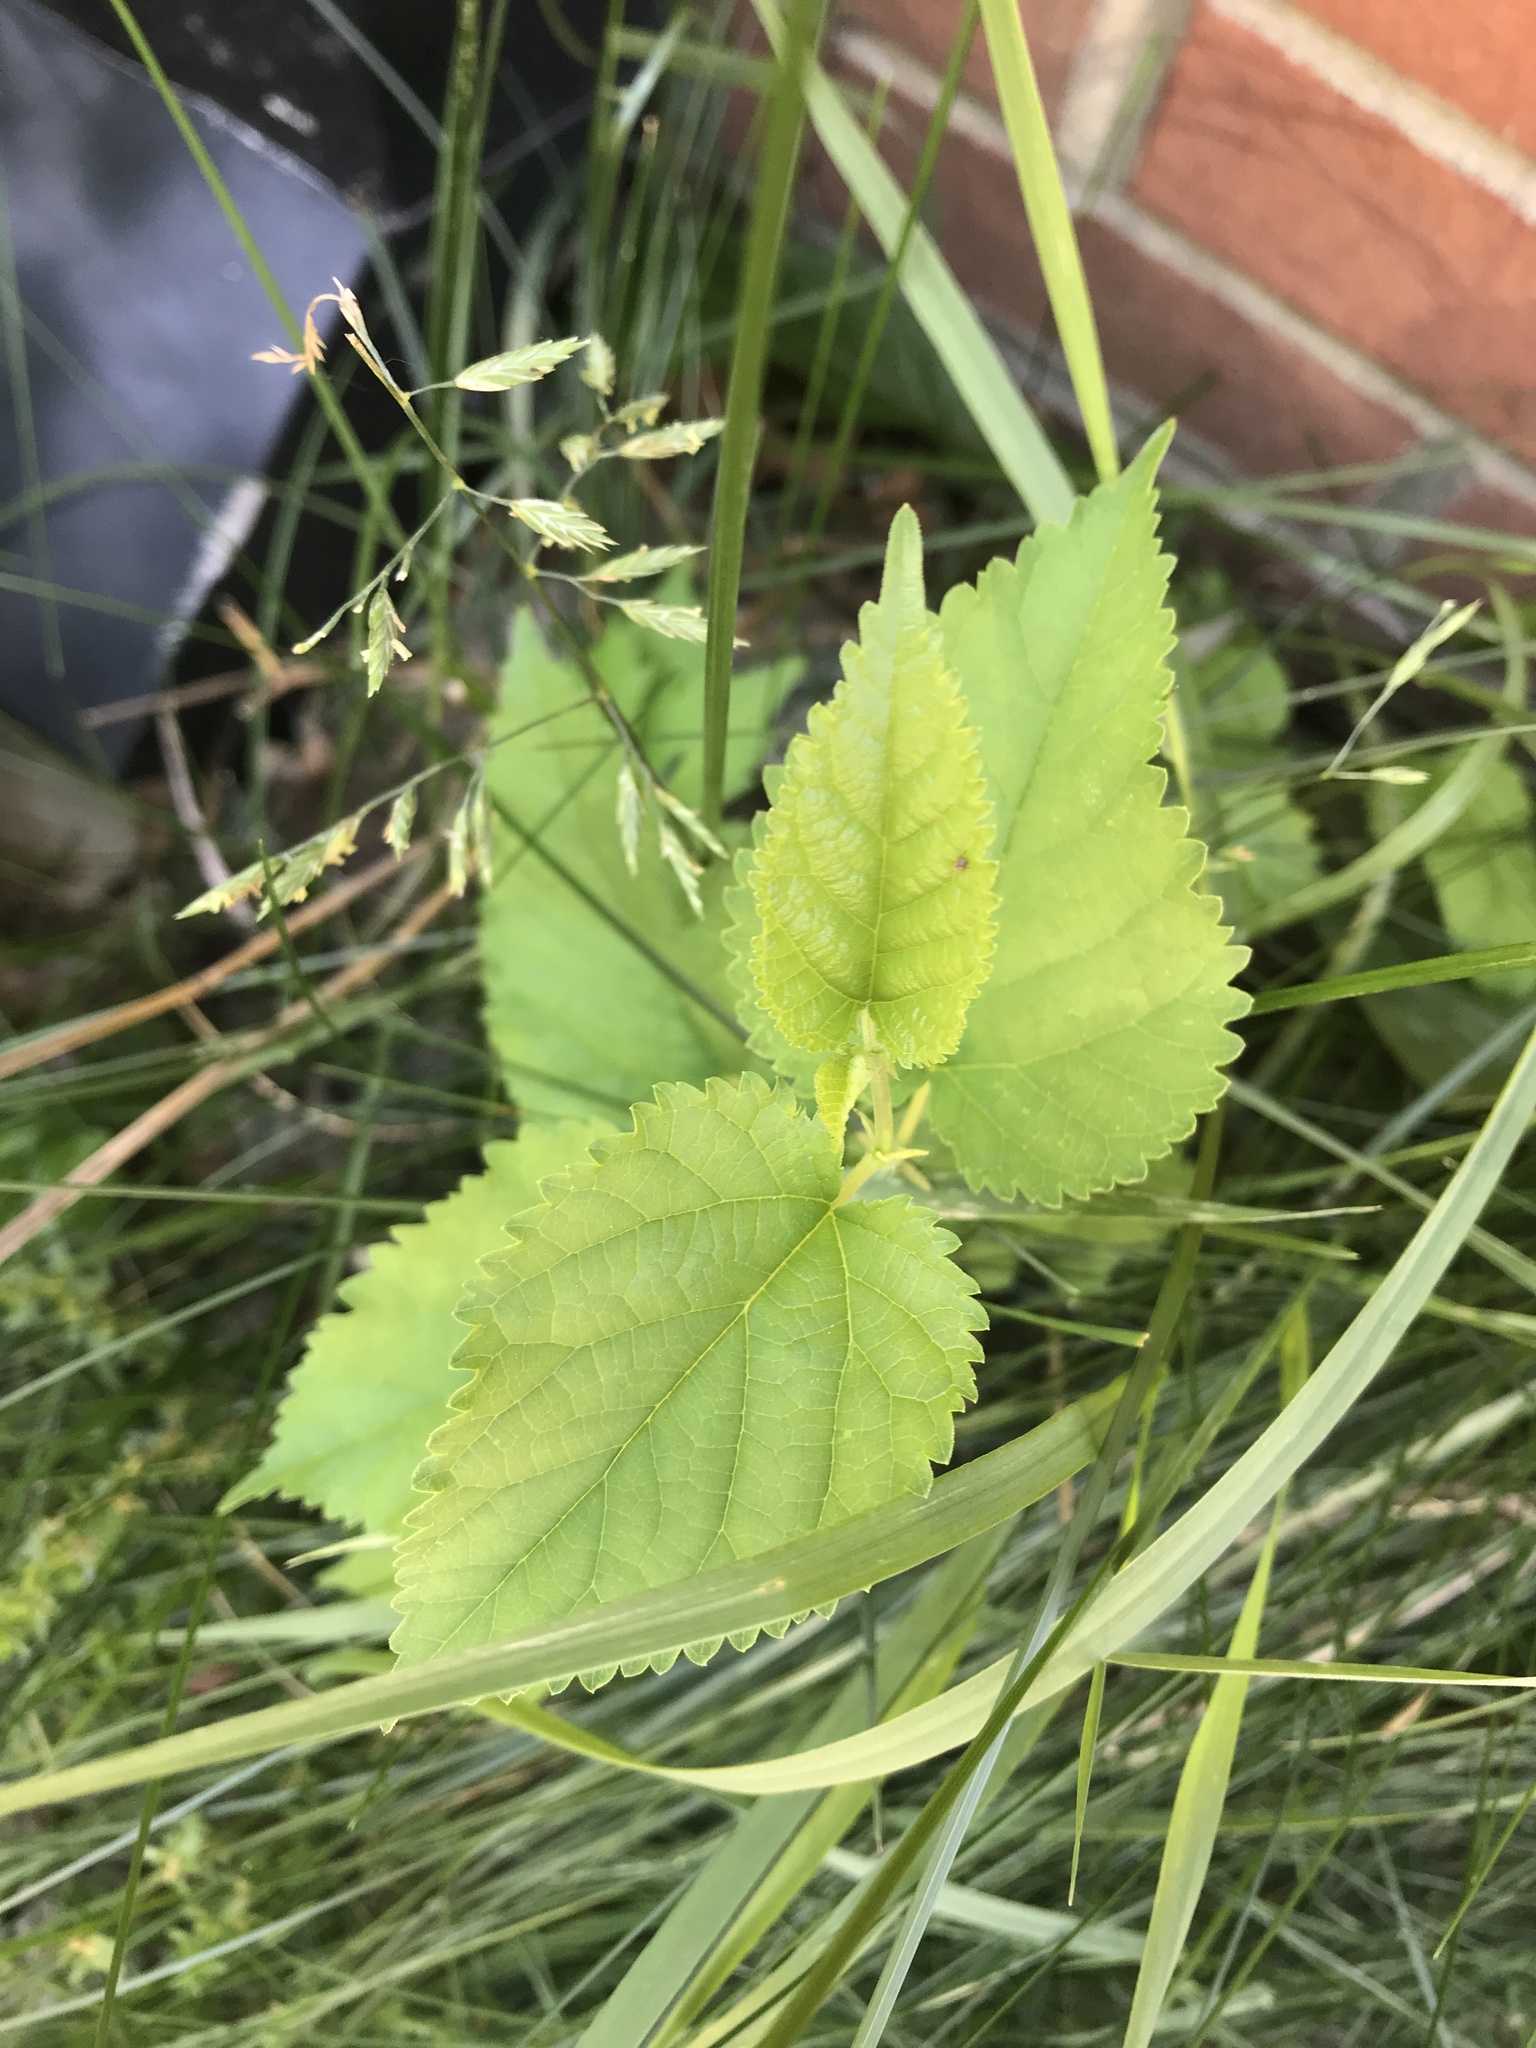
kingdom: Plantae
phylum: Tracheophyta
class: Magnoliopsida
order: Rosales
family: Moraceae
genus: Morus
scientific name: Morus alba
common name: White mulberry
